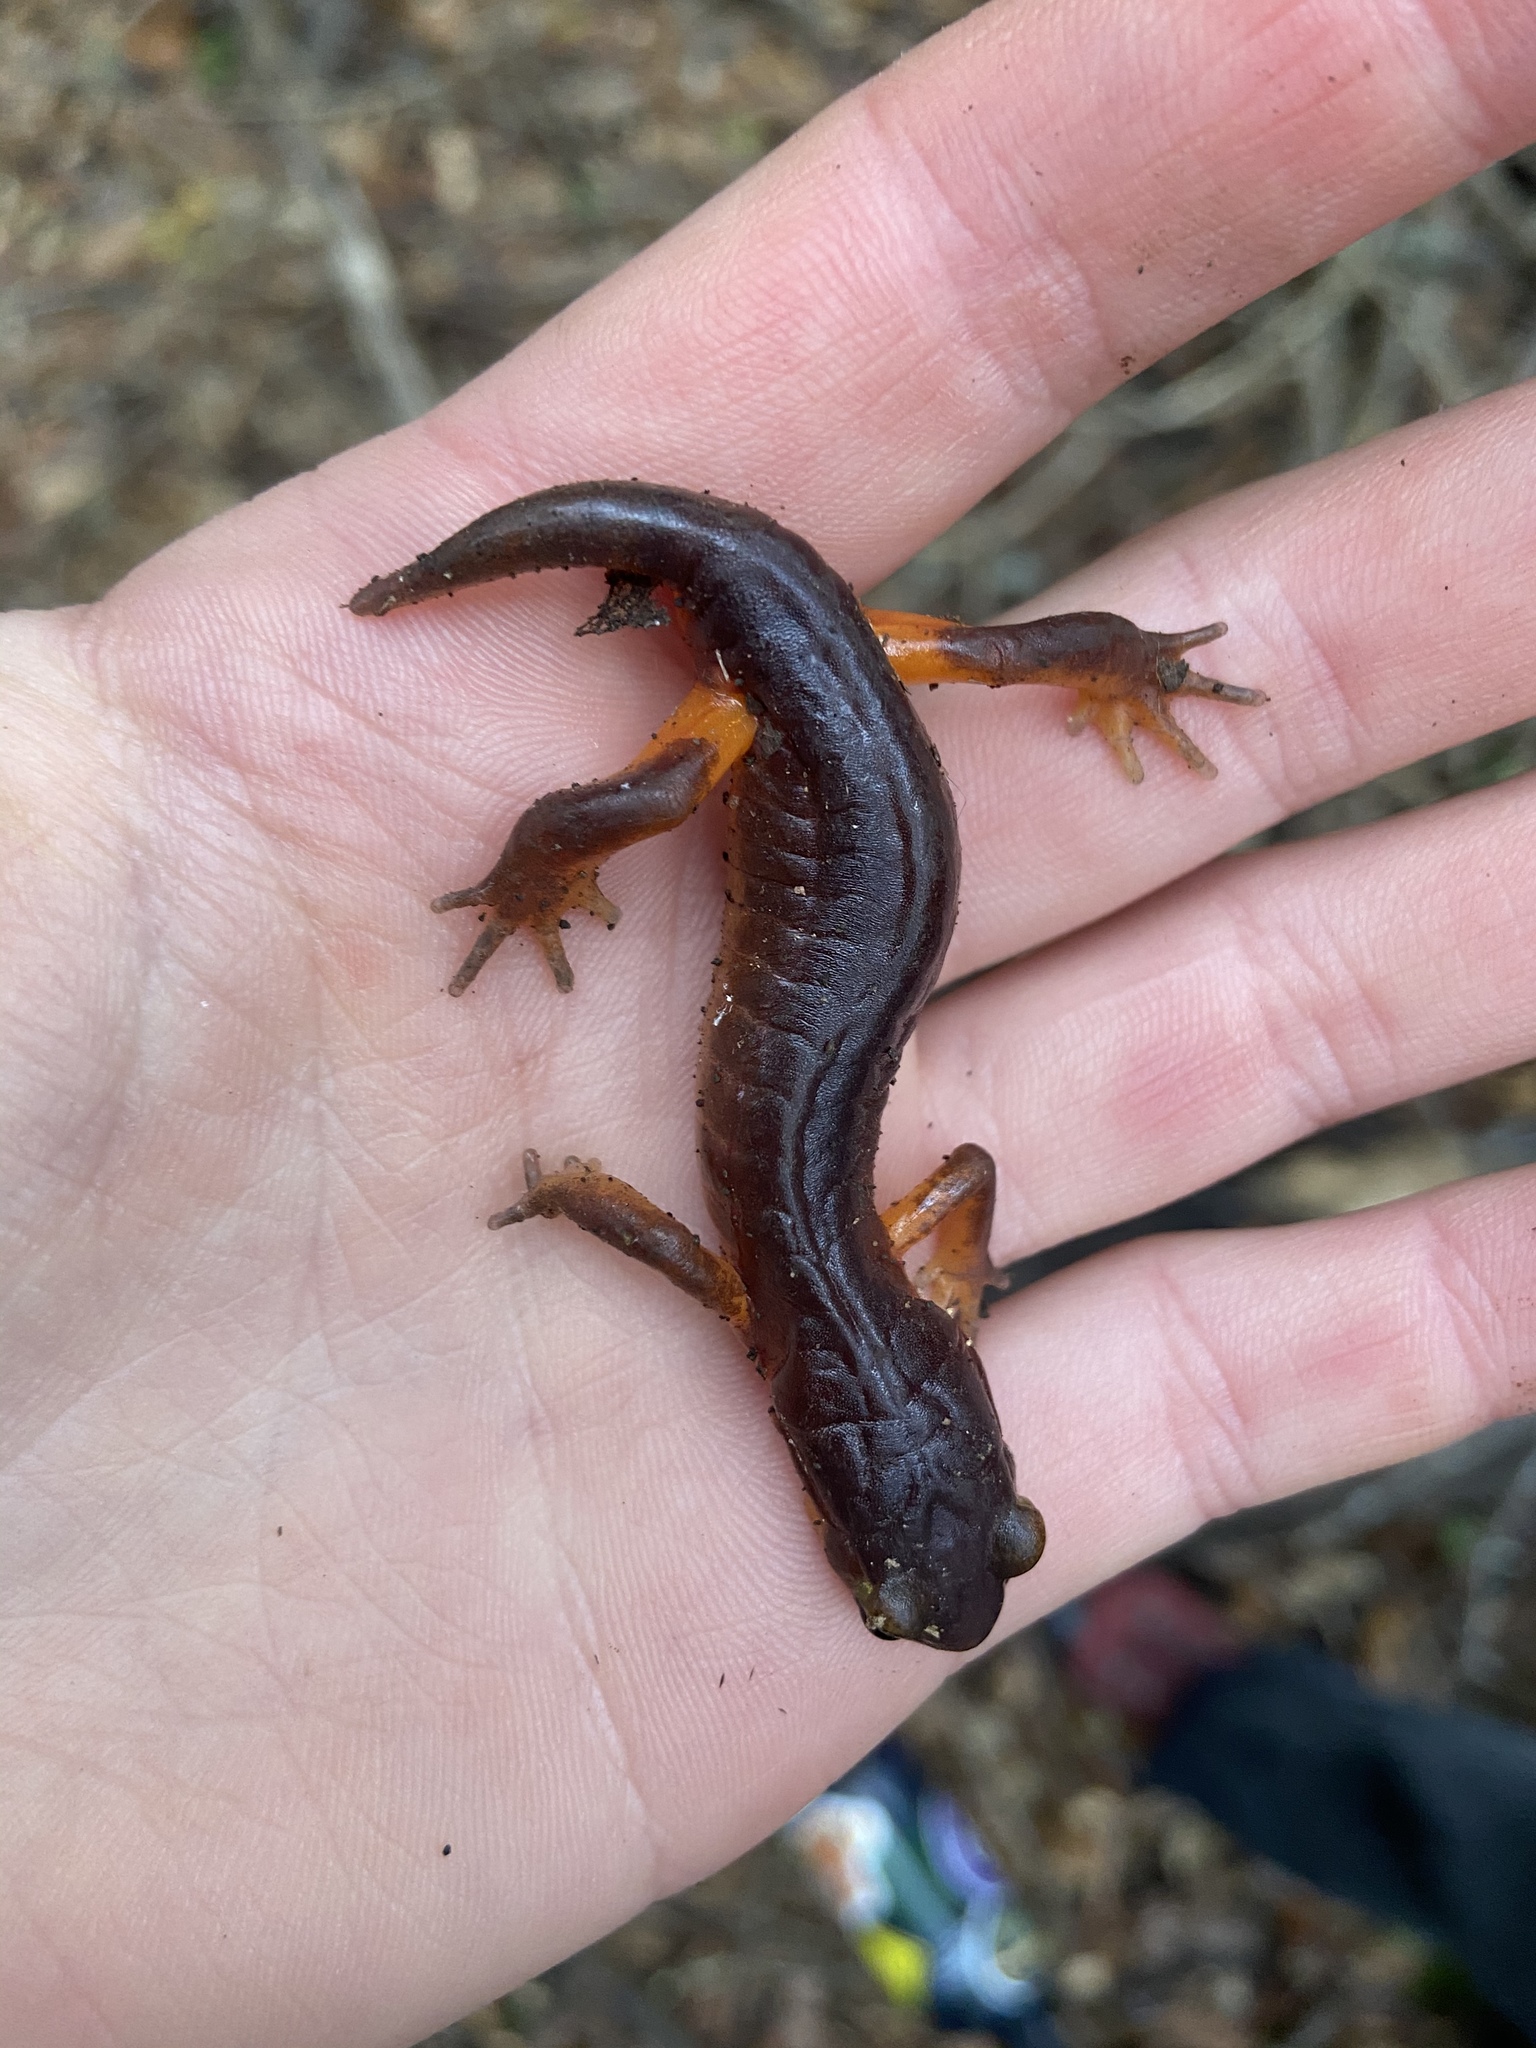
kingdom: Animalia
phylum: Chordata
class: Amphibia
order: Caudata
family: Plethodontidae
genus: Ensatina
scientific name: Ensatina eschscholtzii
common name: Ensatina
